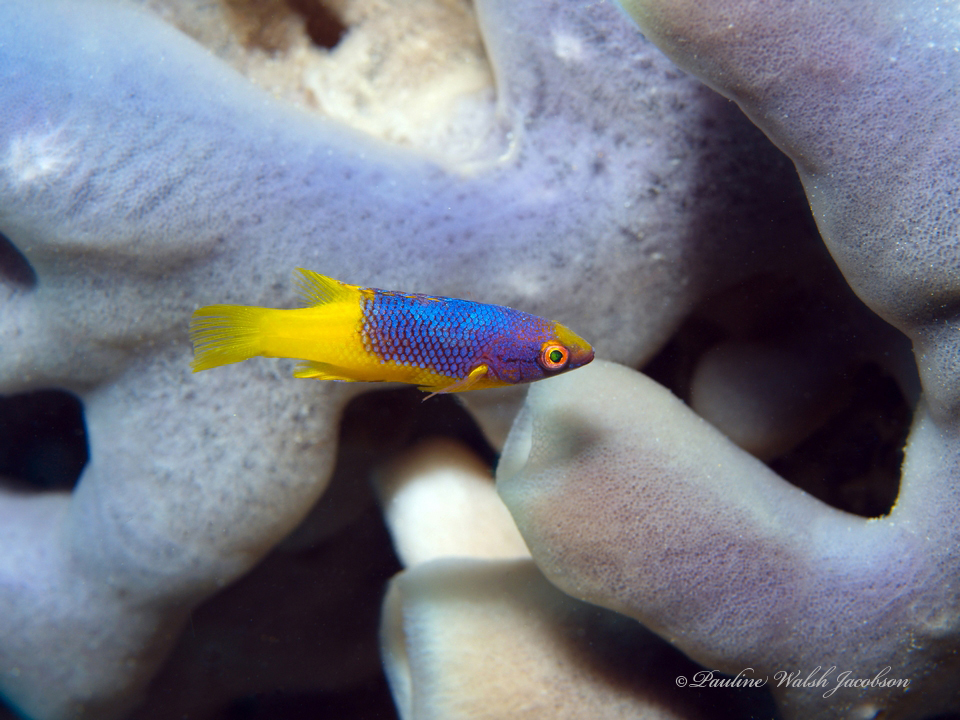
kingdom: Animalia
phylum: Chordata
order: Perciformes
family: Labridae
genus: Bodianus
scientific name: Bodianus rufus
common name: Spanish hogfish
